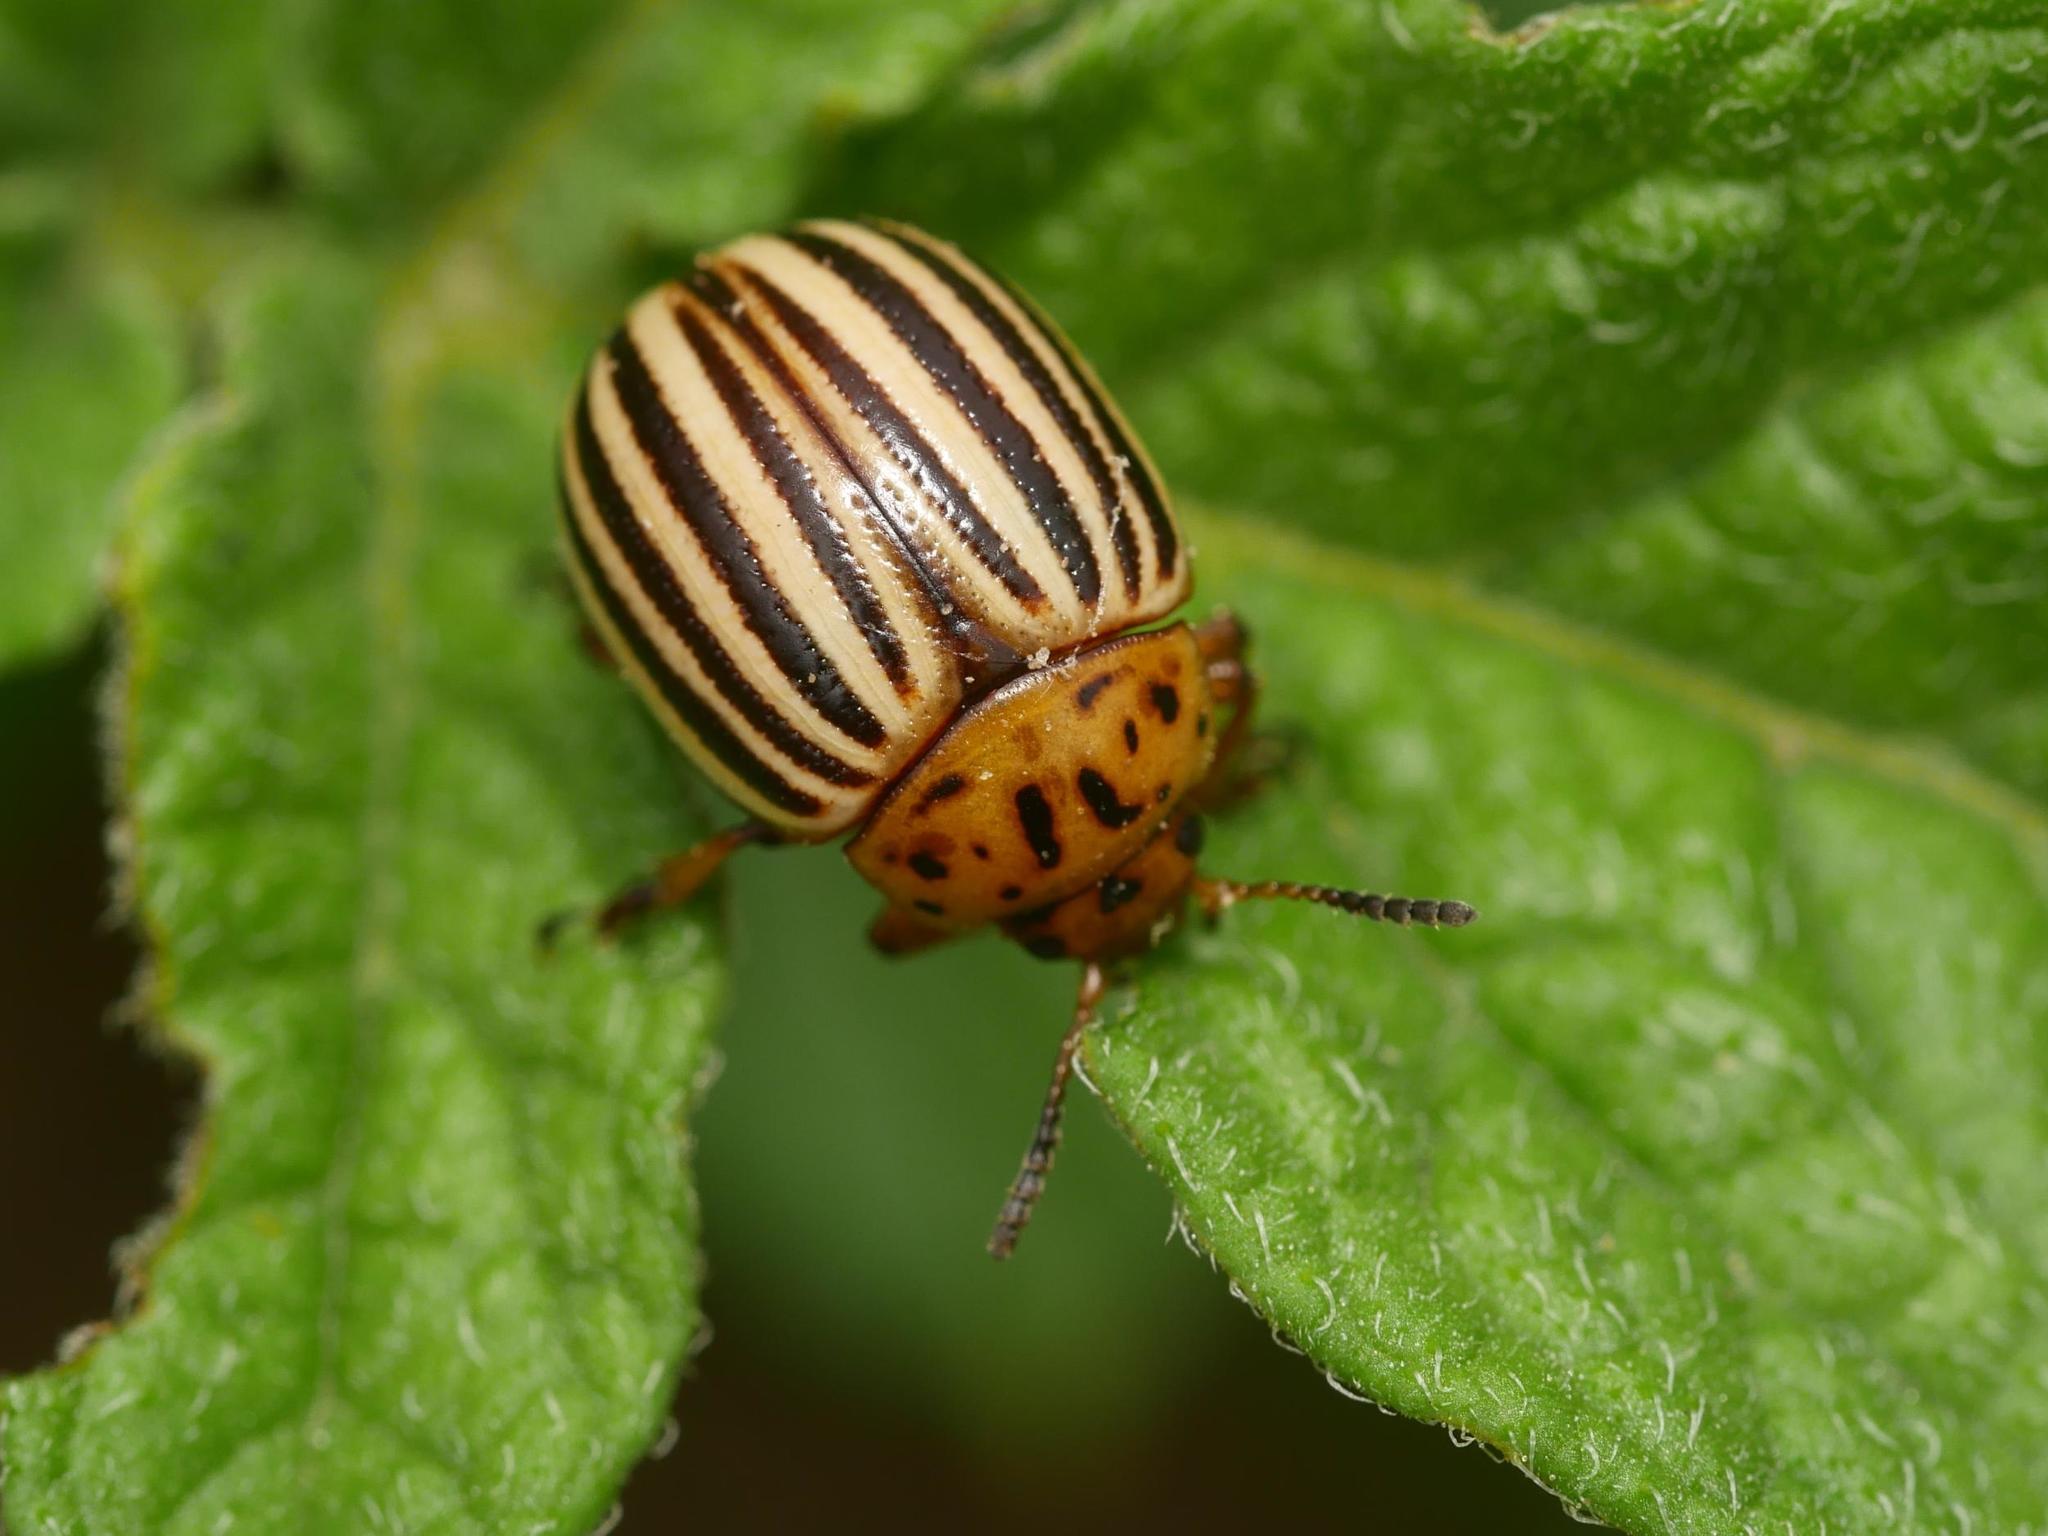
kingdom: Animalia
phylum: Arthropoda
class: Insecta
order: Coleoptera
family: Chrysomelidae
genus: Leptinotarsa
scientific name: Leptinotarsa decemlineata
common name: Colorado potato beetle
